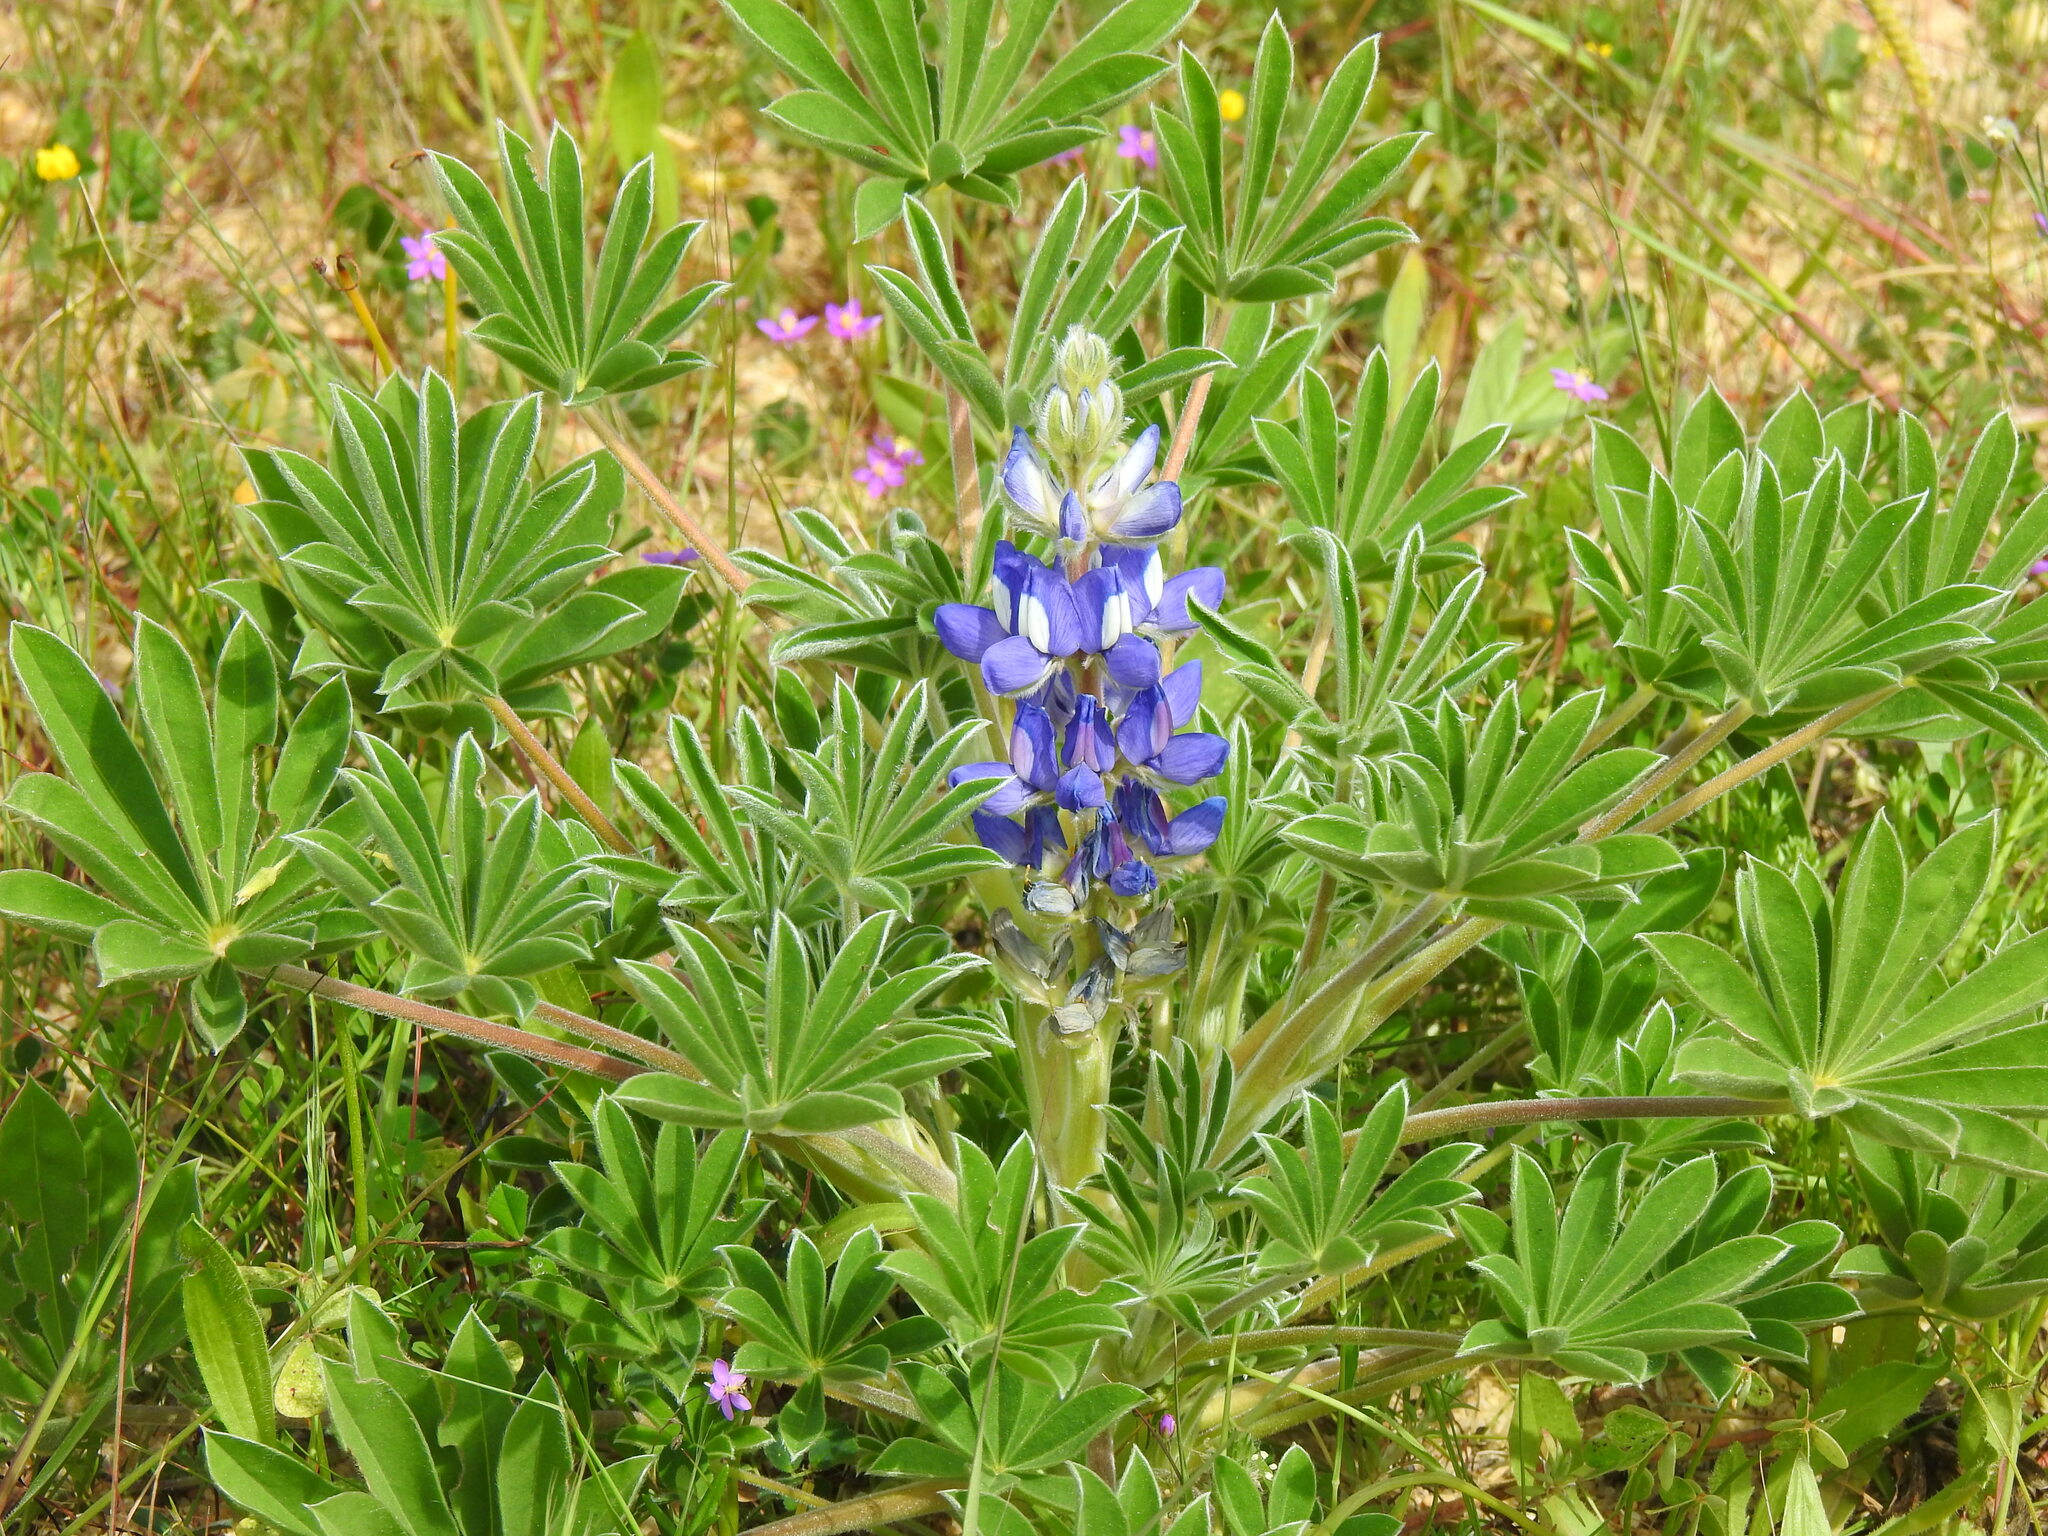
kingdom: Plantae
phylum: Tracheophyta
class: Magnoliopsida
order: Fabales
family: Fabaceae
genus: Lupinus
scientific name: Lupinus cosentinii
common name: Hairy blue lupin
